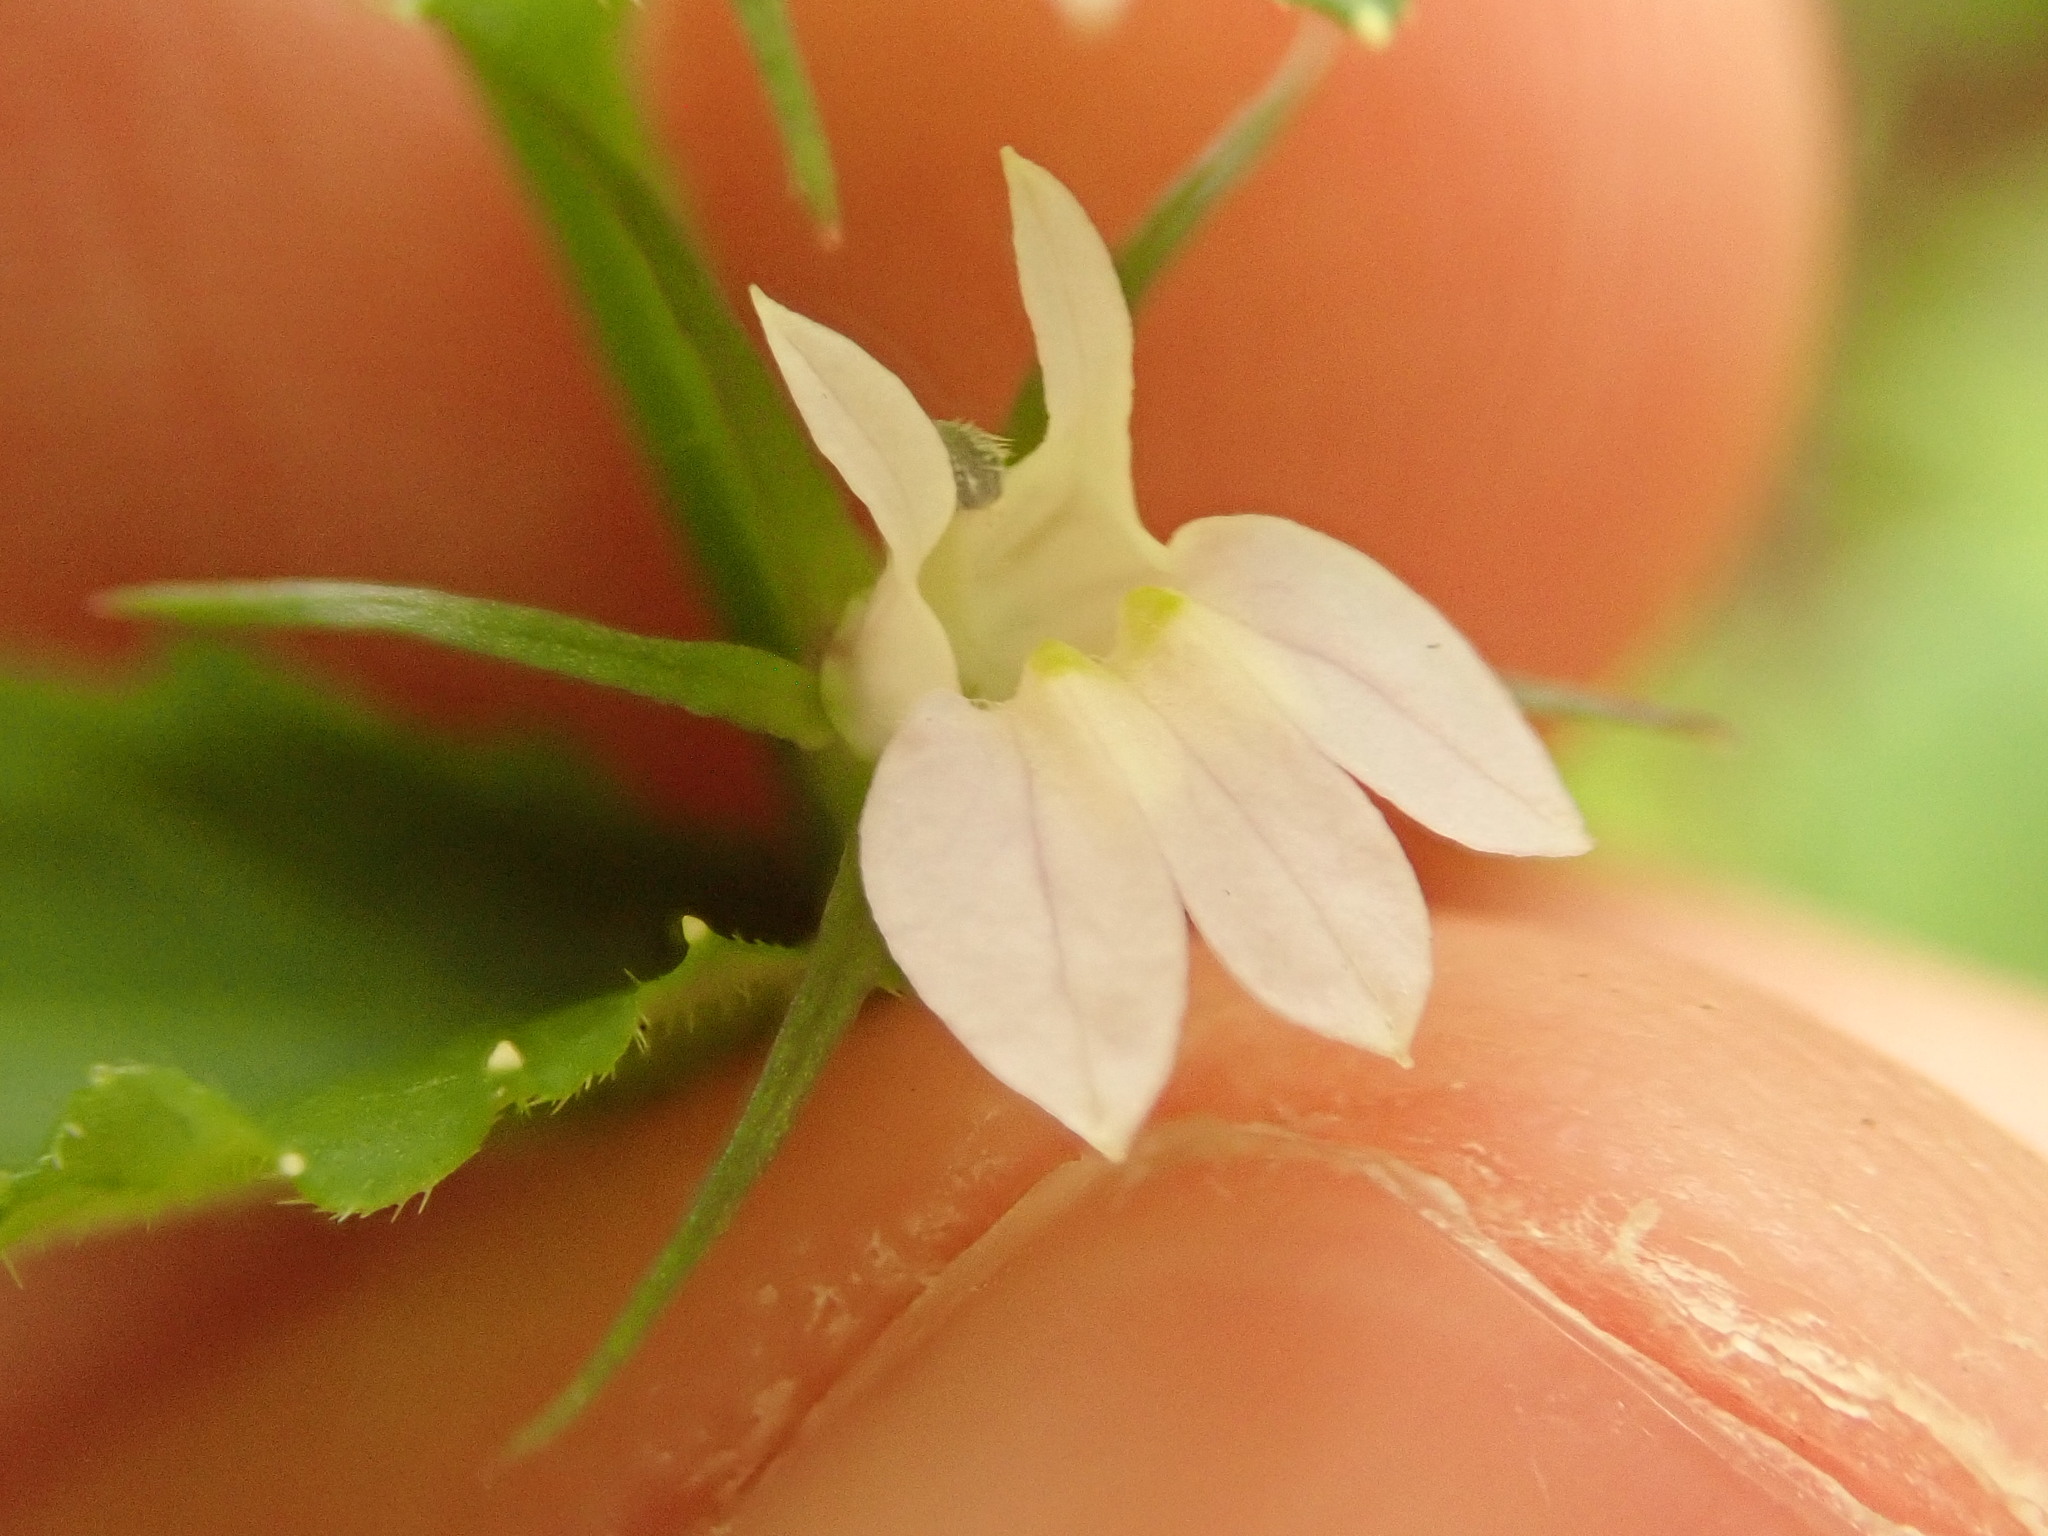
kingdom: Plantae
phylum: Tracheophyta
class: Magnoliopsida
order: Asterales
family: Campanulaceae
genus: Lobelia
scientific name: Lobelia inflata
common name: Indian tobacco
